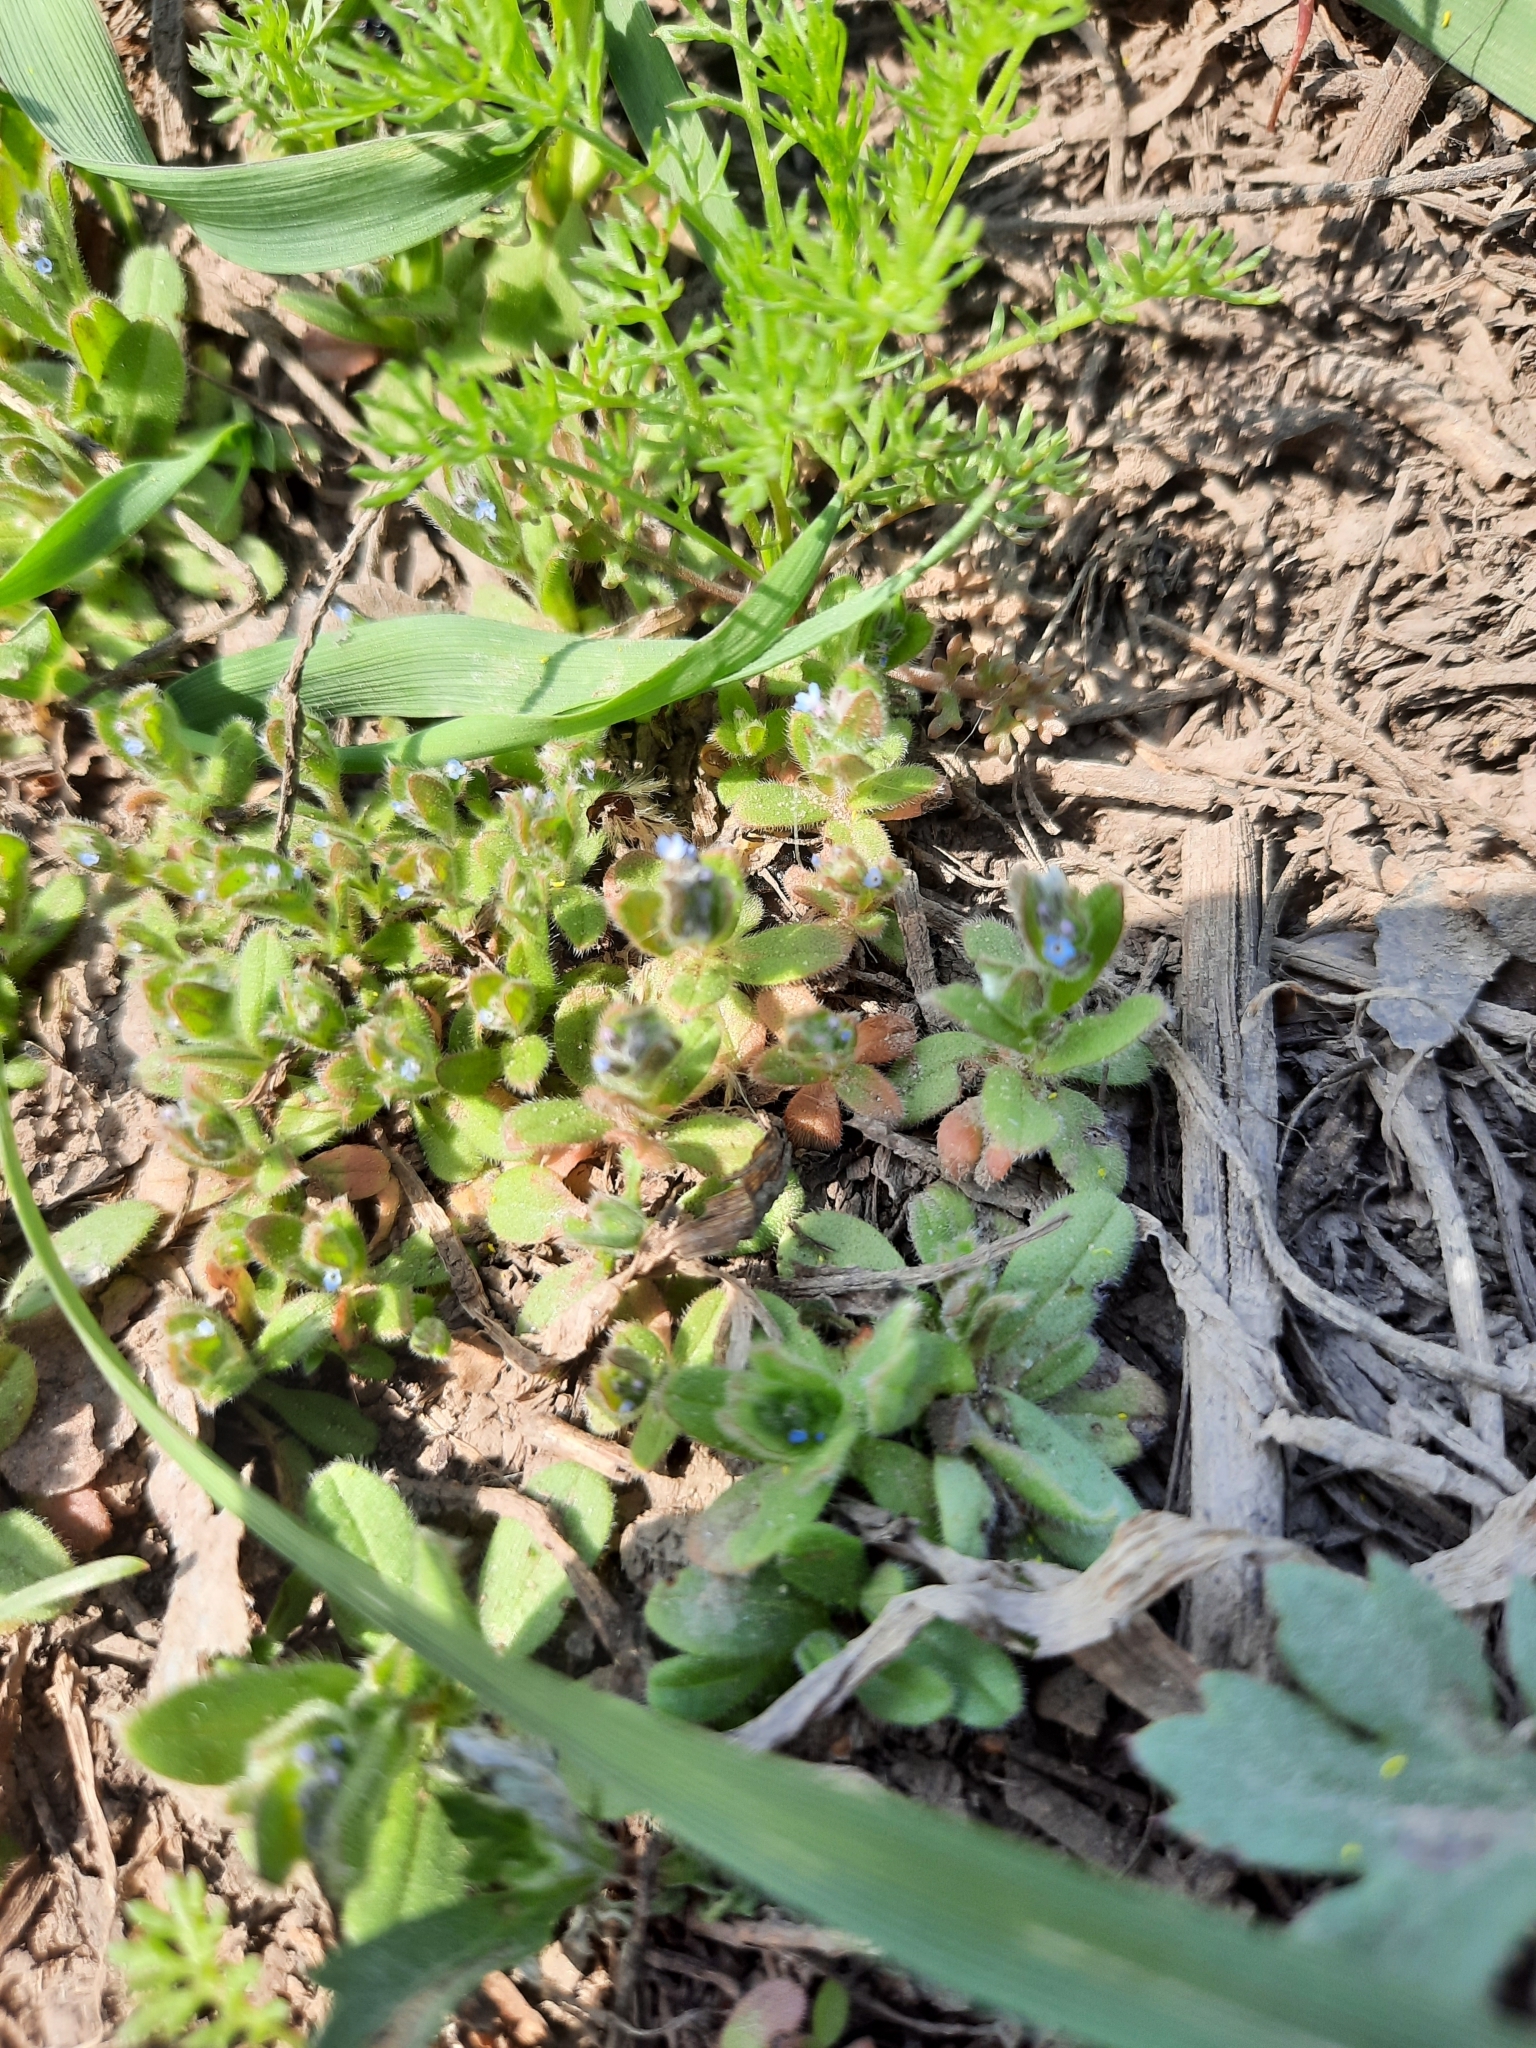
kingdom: Plantae
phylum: Tracheophyta
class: Magnoliopsida
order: Boraginales
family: Boraginaceae
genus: Myosotis
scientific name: Myosotis stricta
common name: Strict forget-me-not
